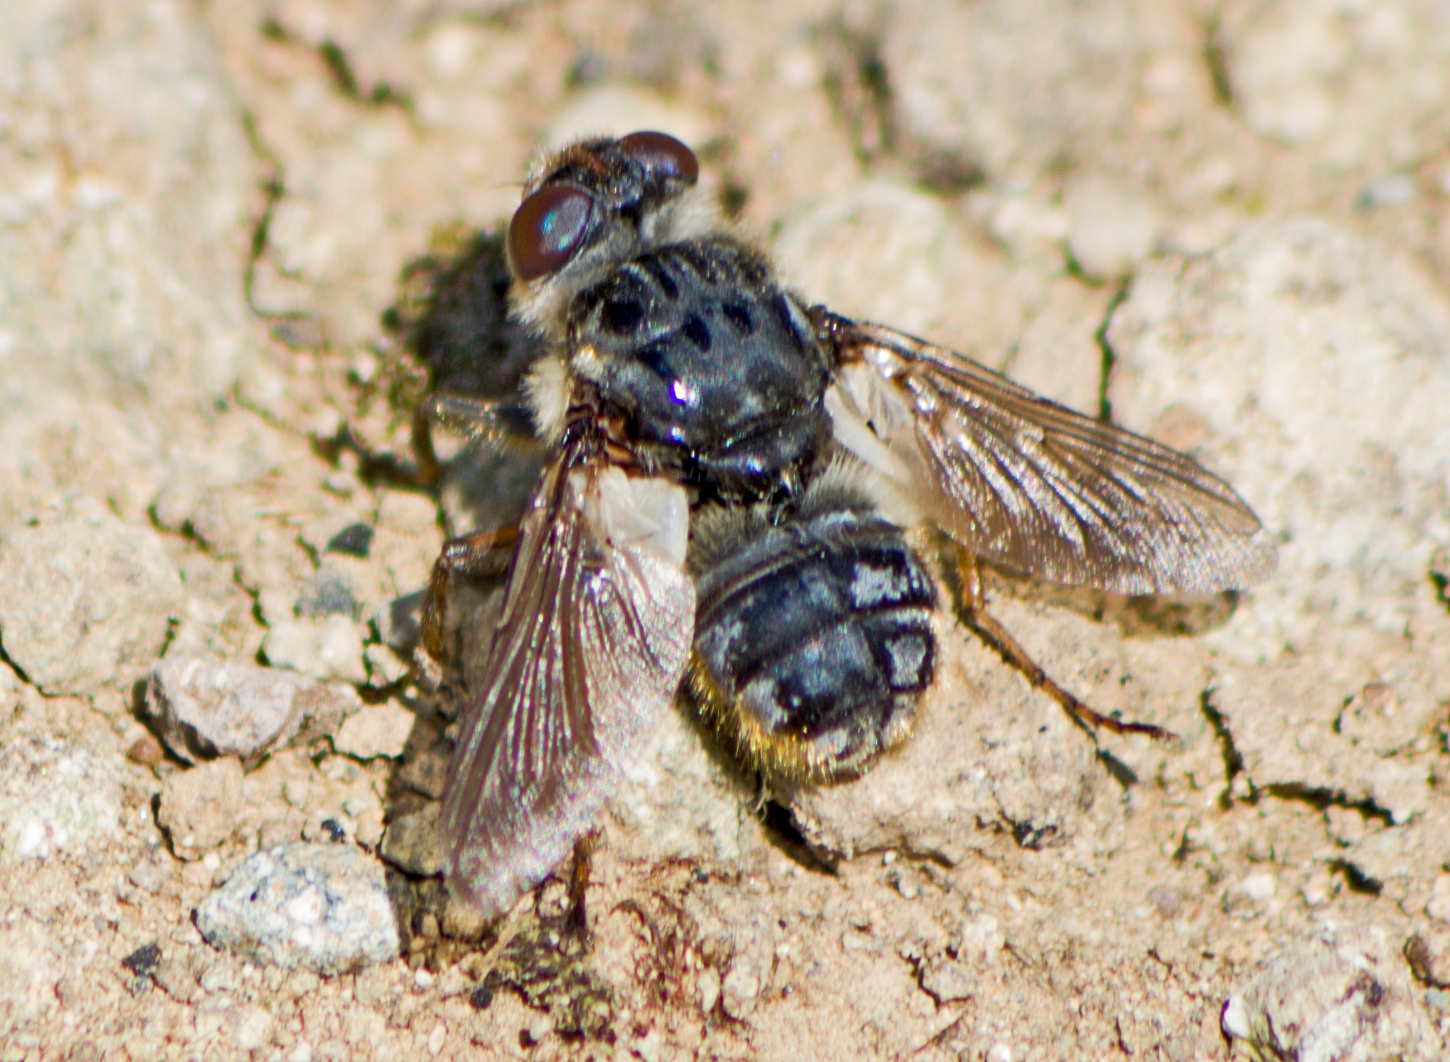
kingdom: Animalia
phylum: Arthropoda
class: Insecta
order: Diptera
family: Oestridae
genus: Hypoderma
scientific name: Hypoderma diana
